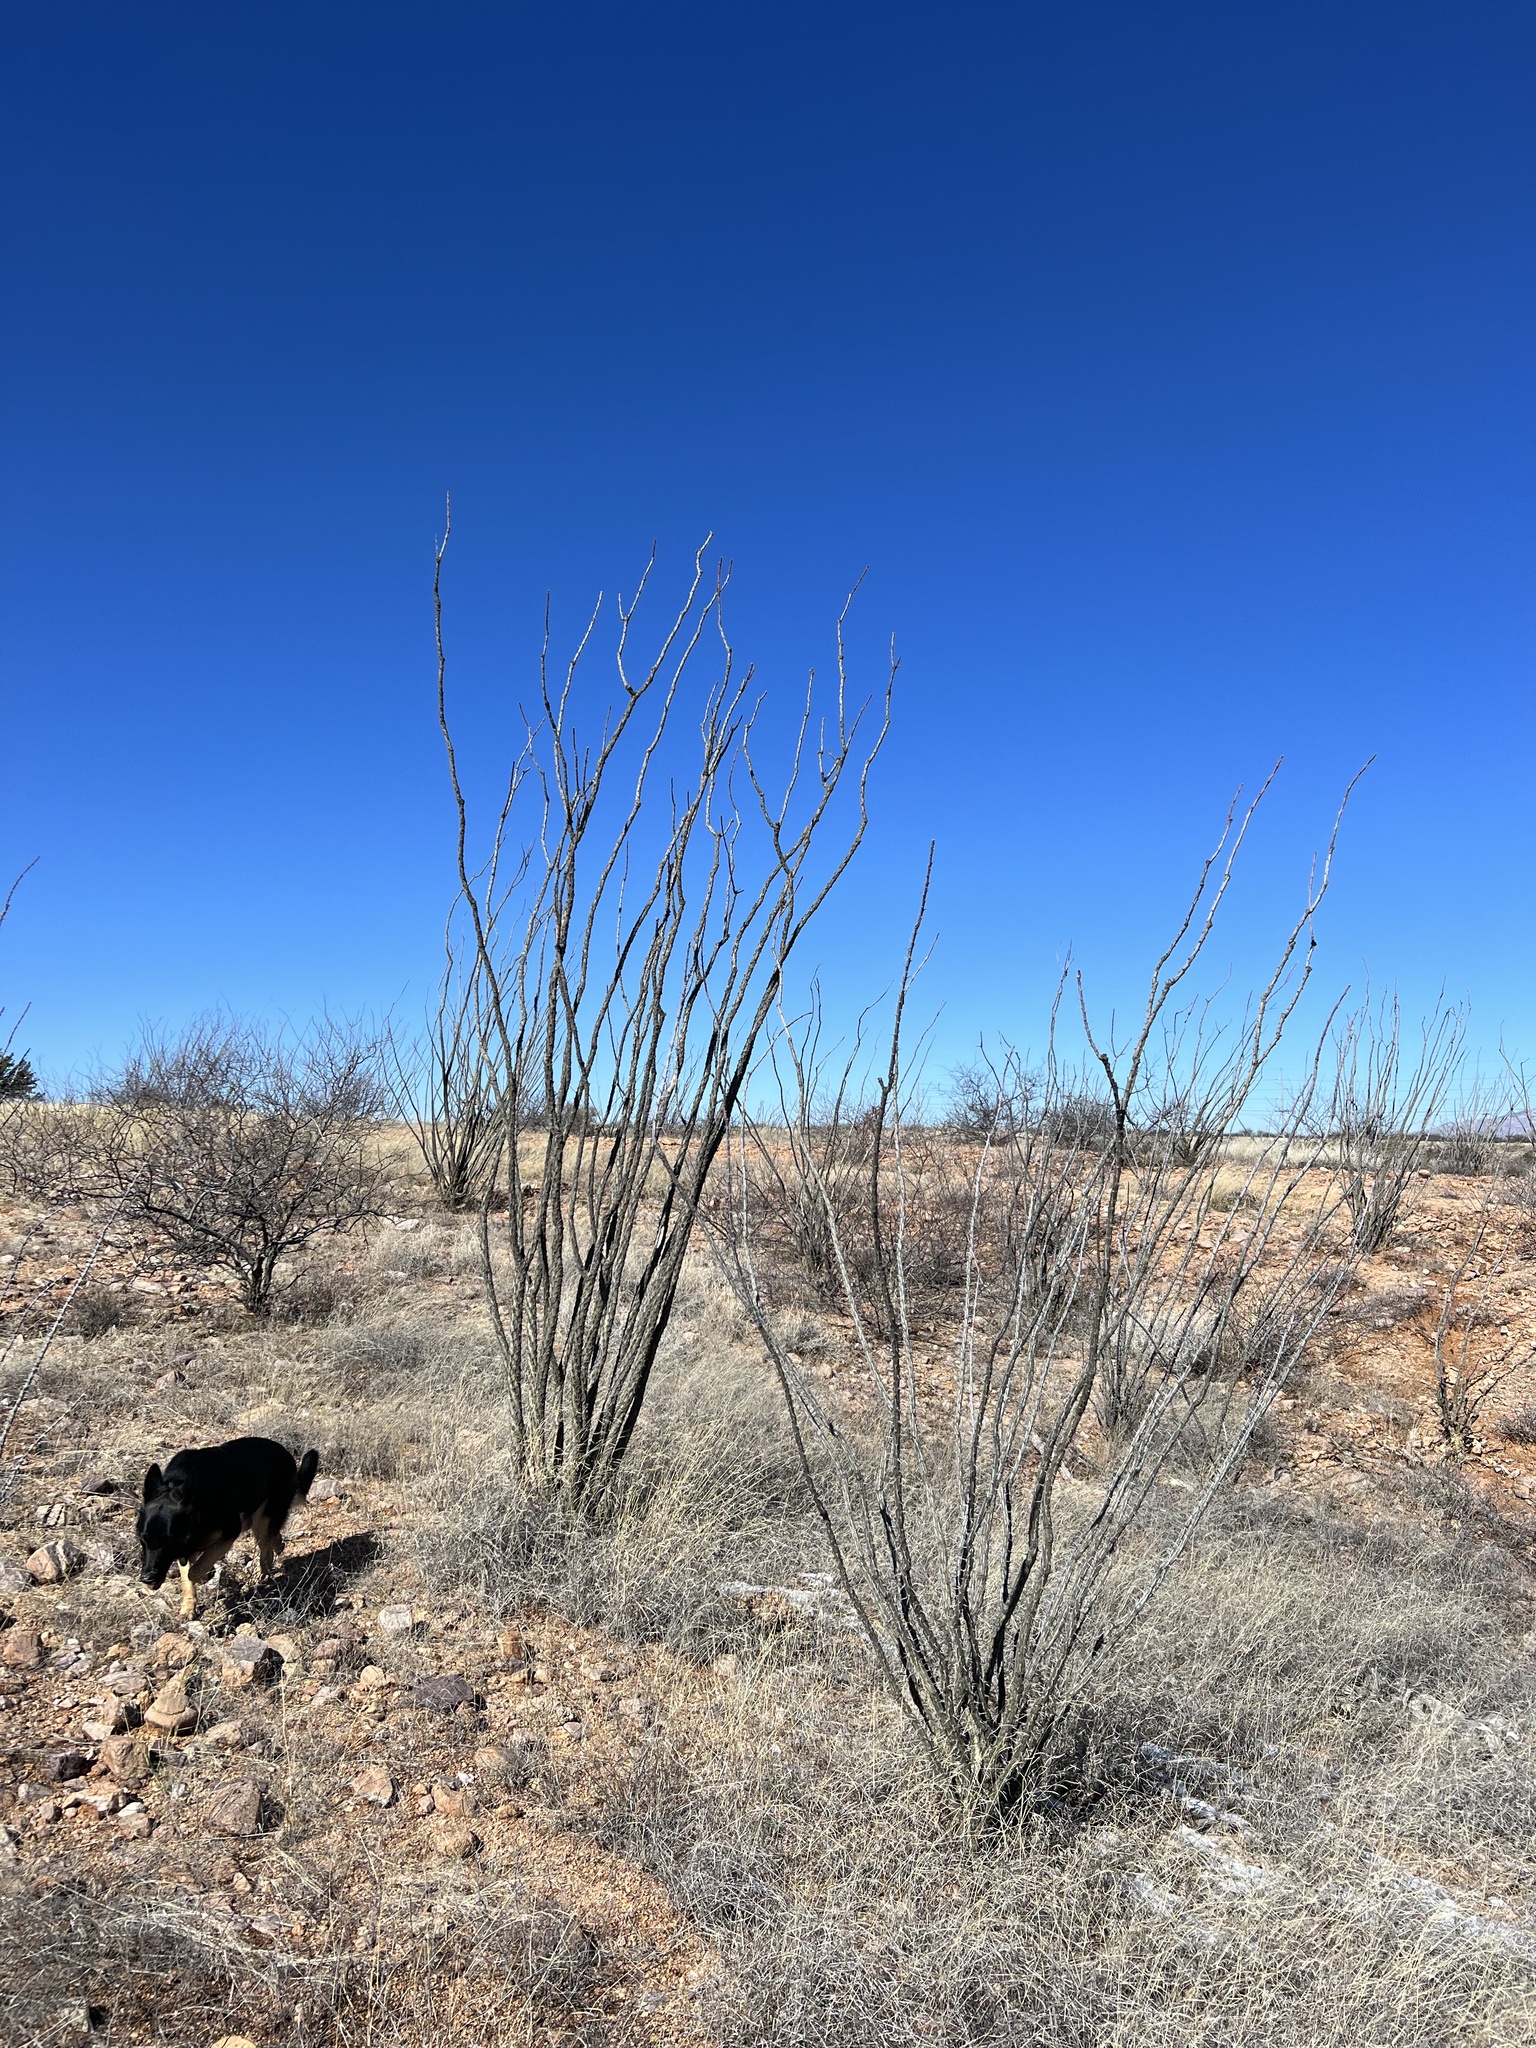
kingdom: Plantae
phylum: Tracheophyta
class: Magnoliopsida
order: Ericales
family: Fouquieriaceae
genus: Fouquieria
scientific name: Fouquieria splendens
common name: Vine-cactus
